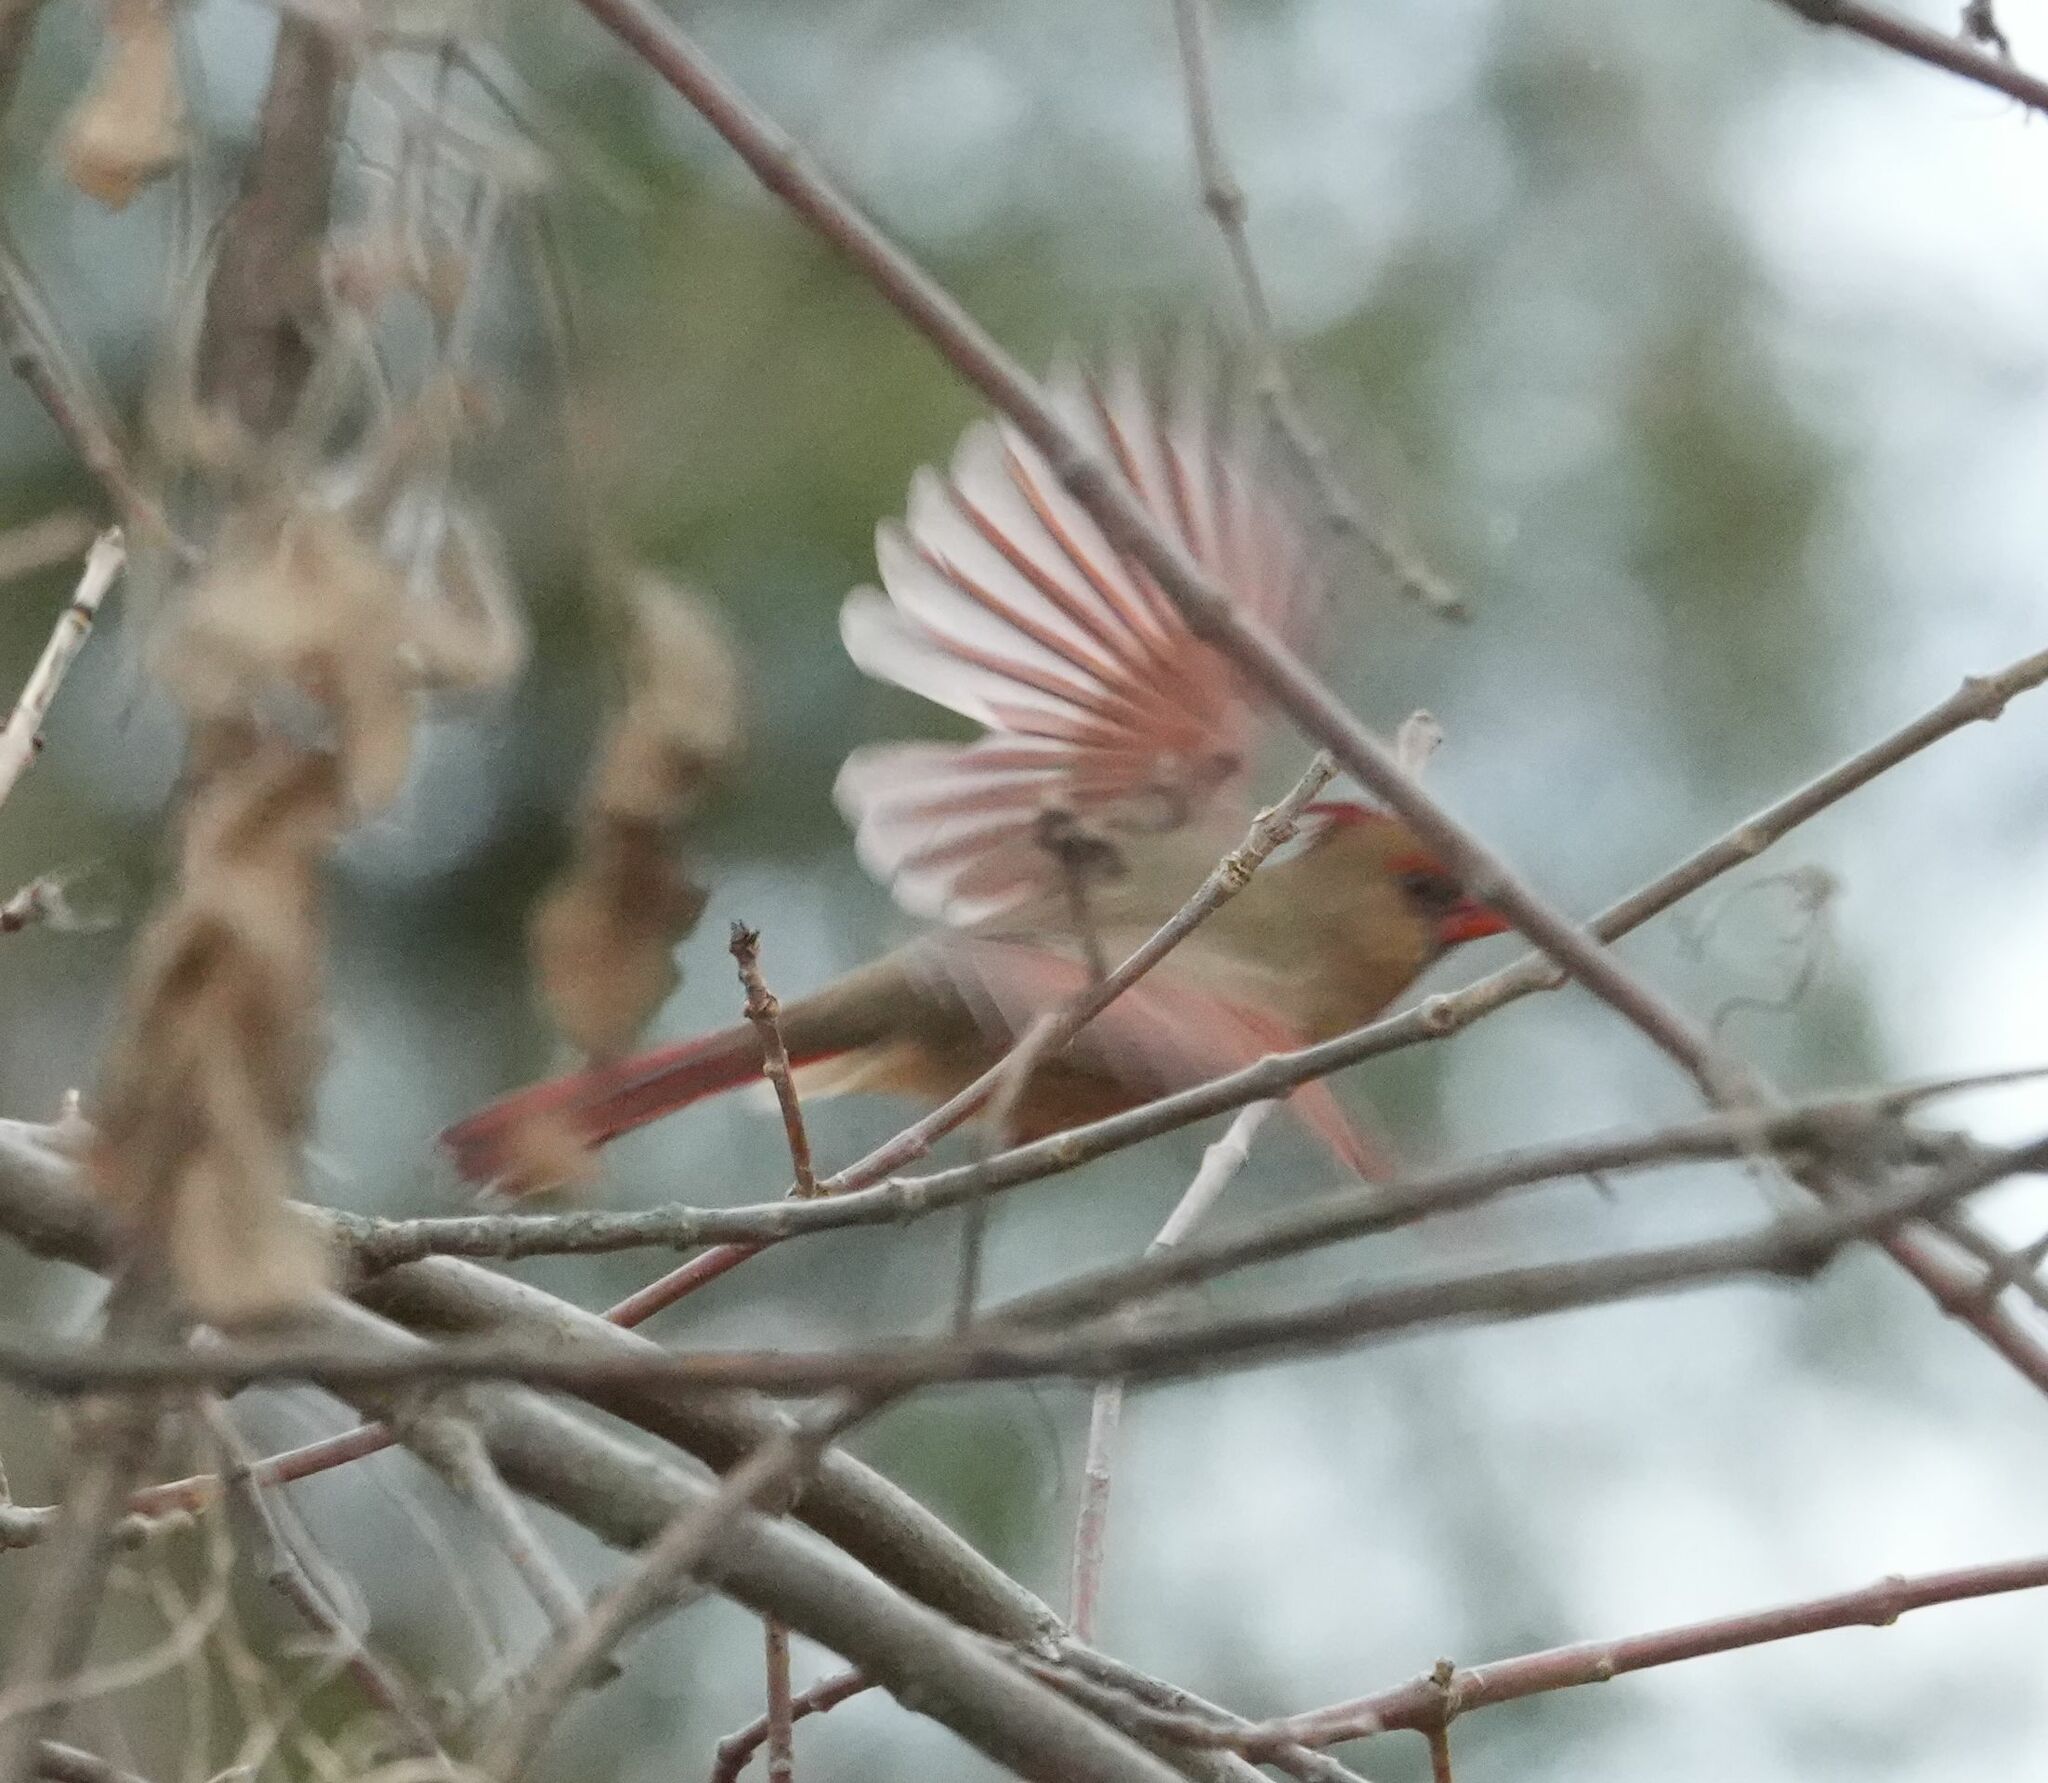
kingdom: Animalia
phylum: Chordata
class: Aves
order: Passeriformes
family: Cardinalidae
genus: Cardinalis
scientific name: Cardinalis cardinalis
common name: Northern cardinal
